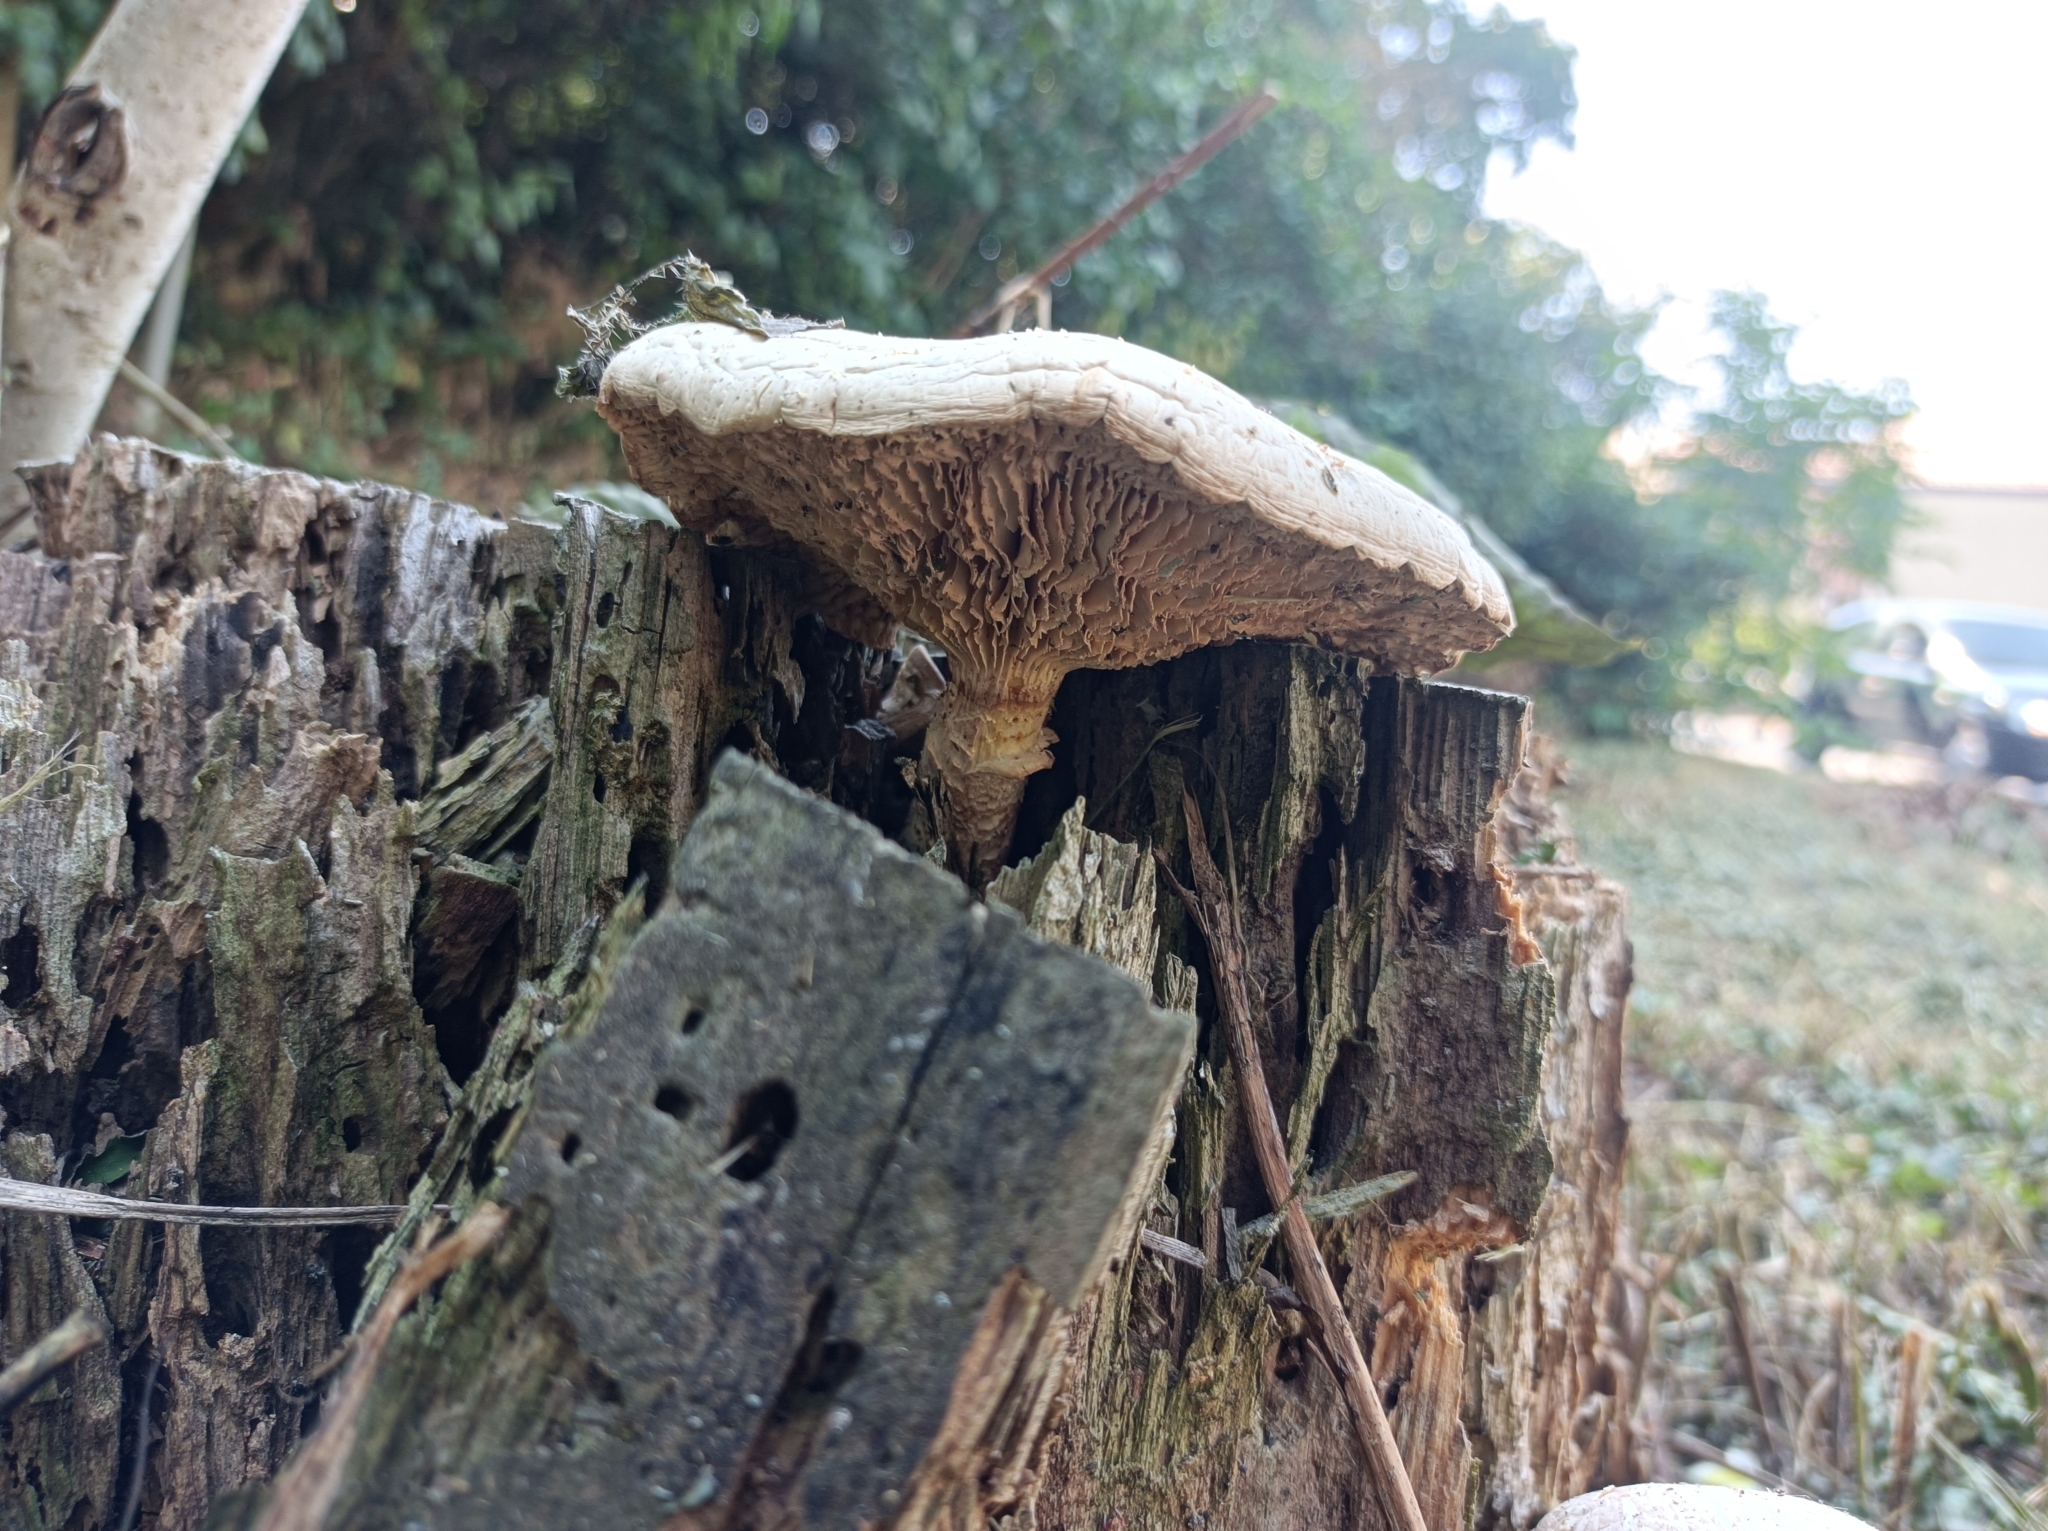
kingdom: Fungi
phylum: Basidiomycota
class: Agaricomycetes
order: Gloeophyllales
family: Gloeophyllaceae
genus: Neolentinus
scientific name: Neolentinus lepideus
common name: Scaly sawgill
